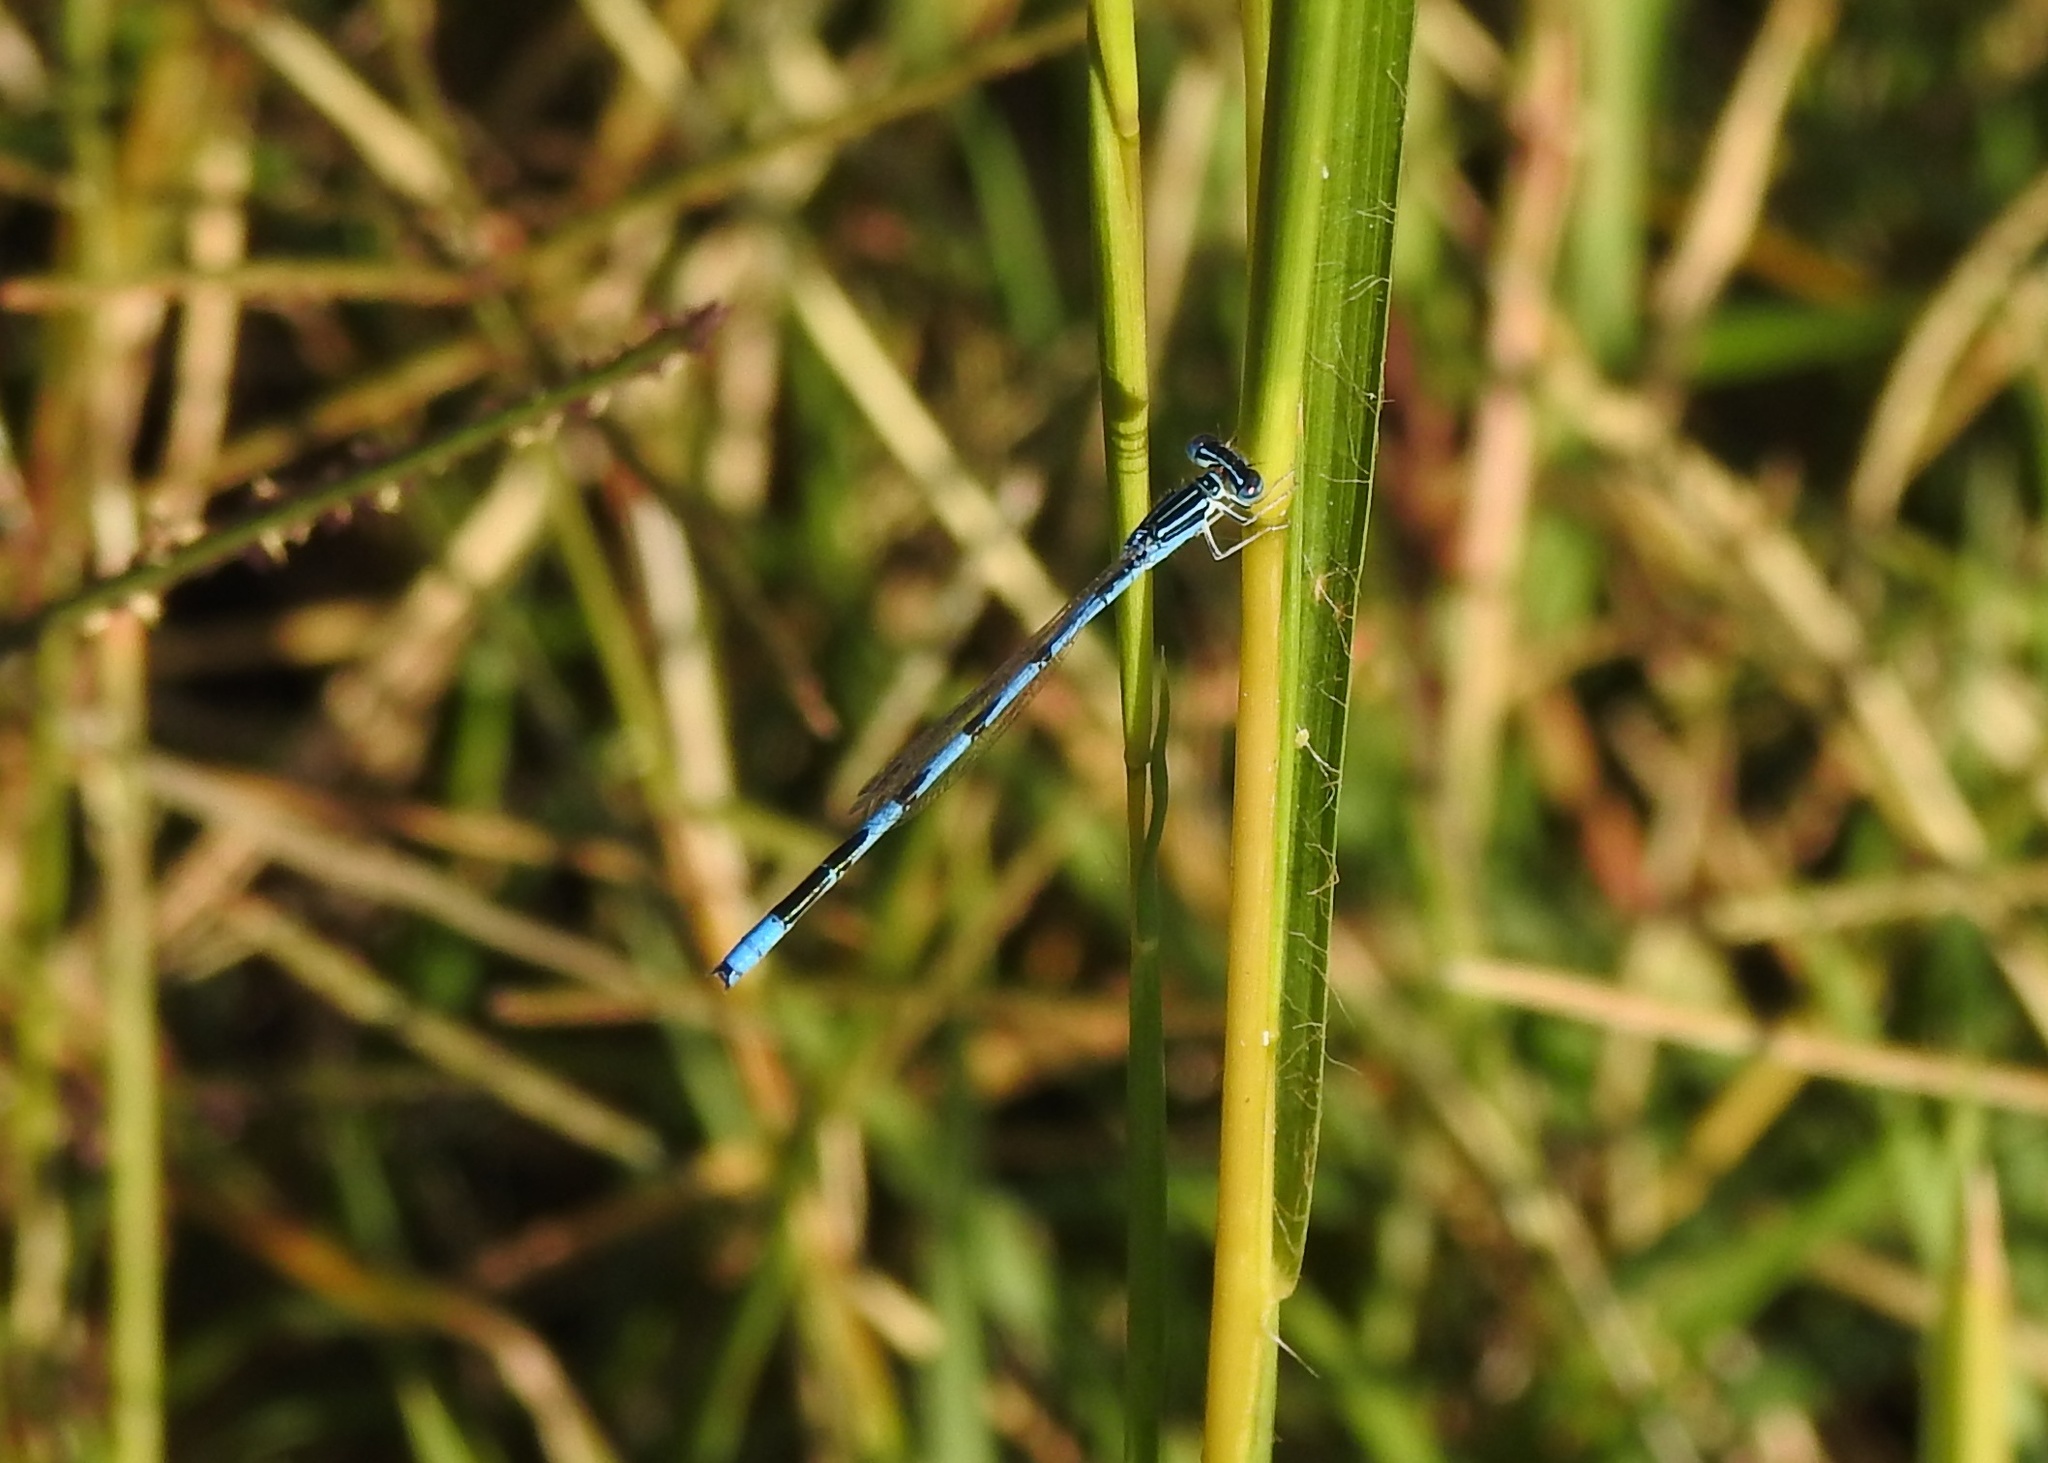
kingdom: Animalia
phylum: Arthropoda
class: Insecta
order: Odonata
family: Coenagrionidae
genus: Enallagma
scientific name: Enallagma basidens
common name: Double-striped bluet
